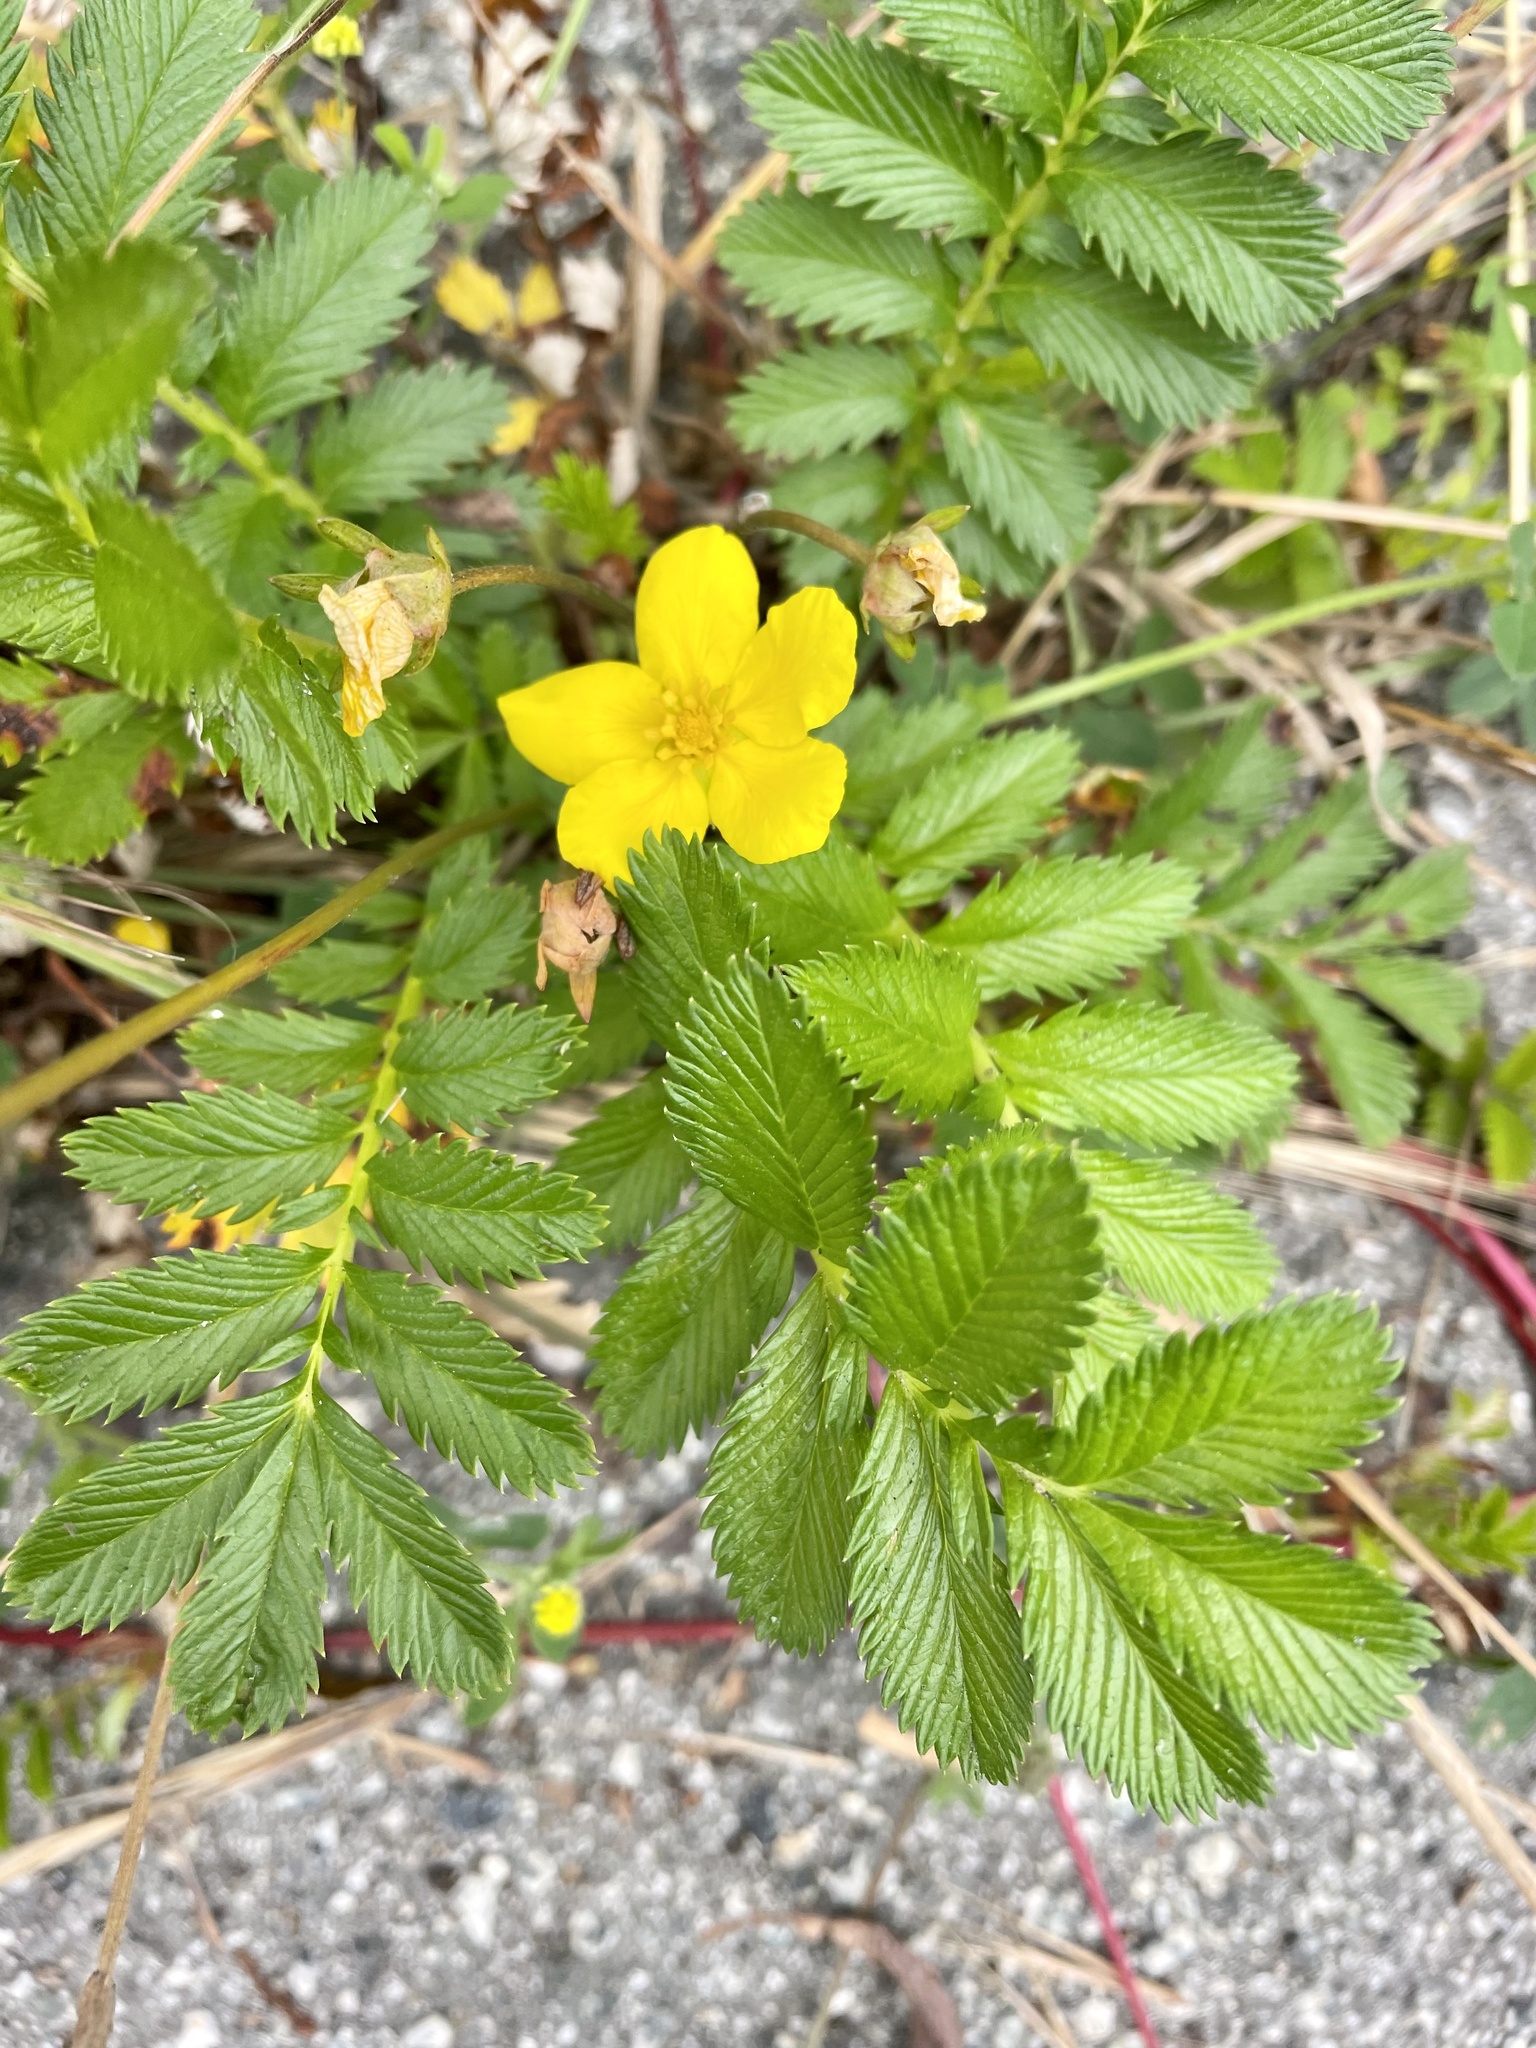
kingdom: Plantae
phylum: Tracheophyta
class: Magnoliopsida
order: Rosales
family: Rosaceae
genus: Argentina
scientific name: Argentina anserina
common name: Common silverweed
